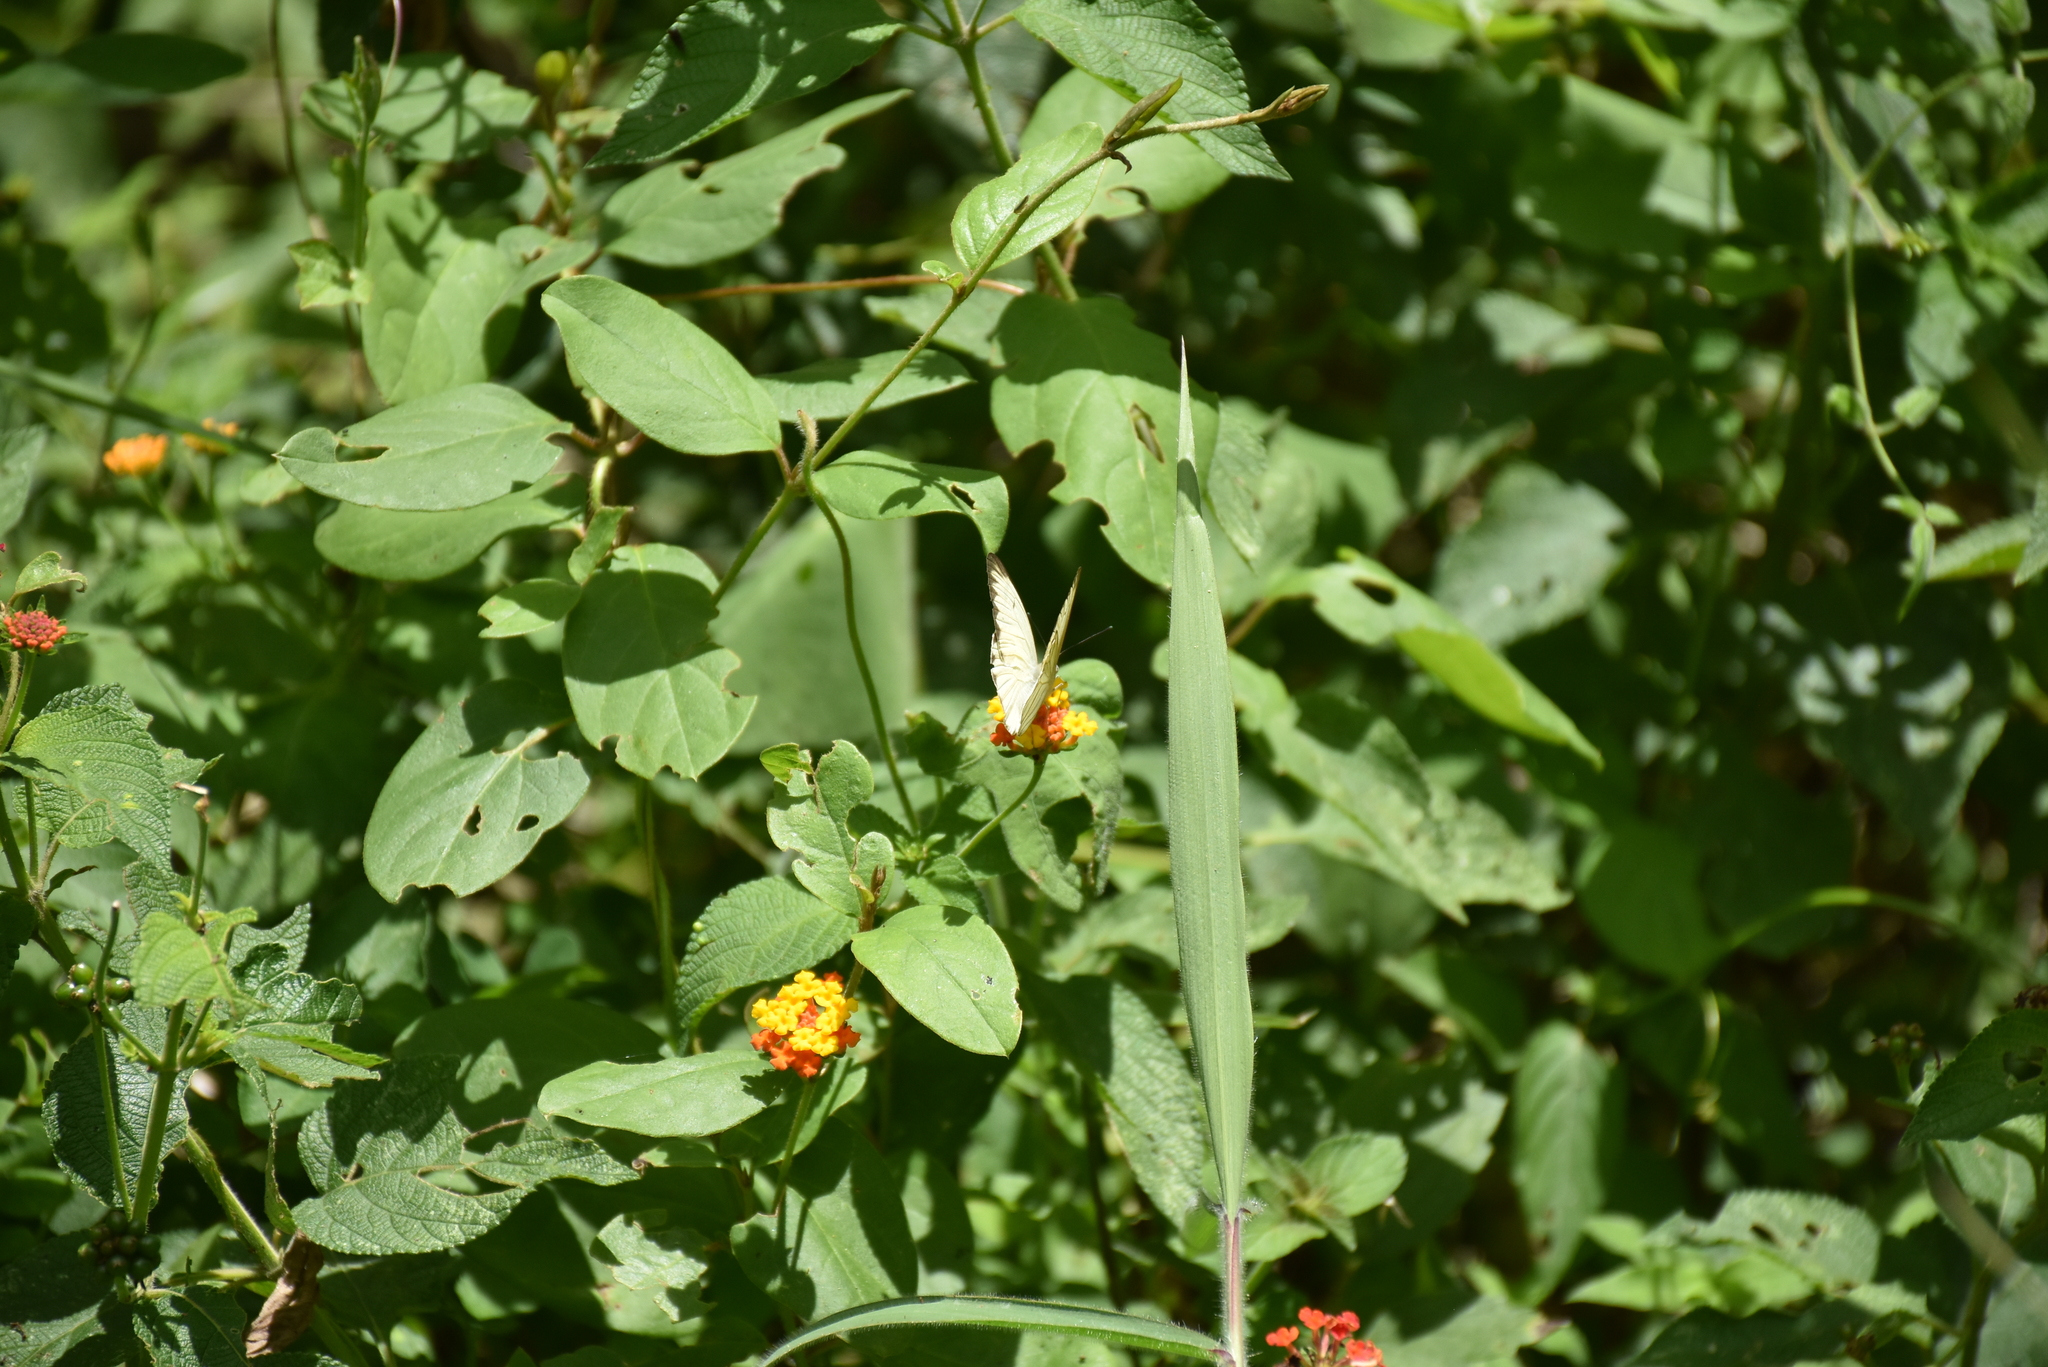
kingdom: Animalia
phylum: Arthropoda
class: Insecta
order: Lepidoptera
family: Pieridae
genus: Ascia
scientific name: Ascia monuste
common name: Great southern white
